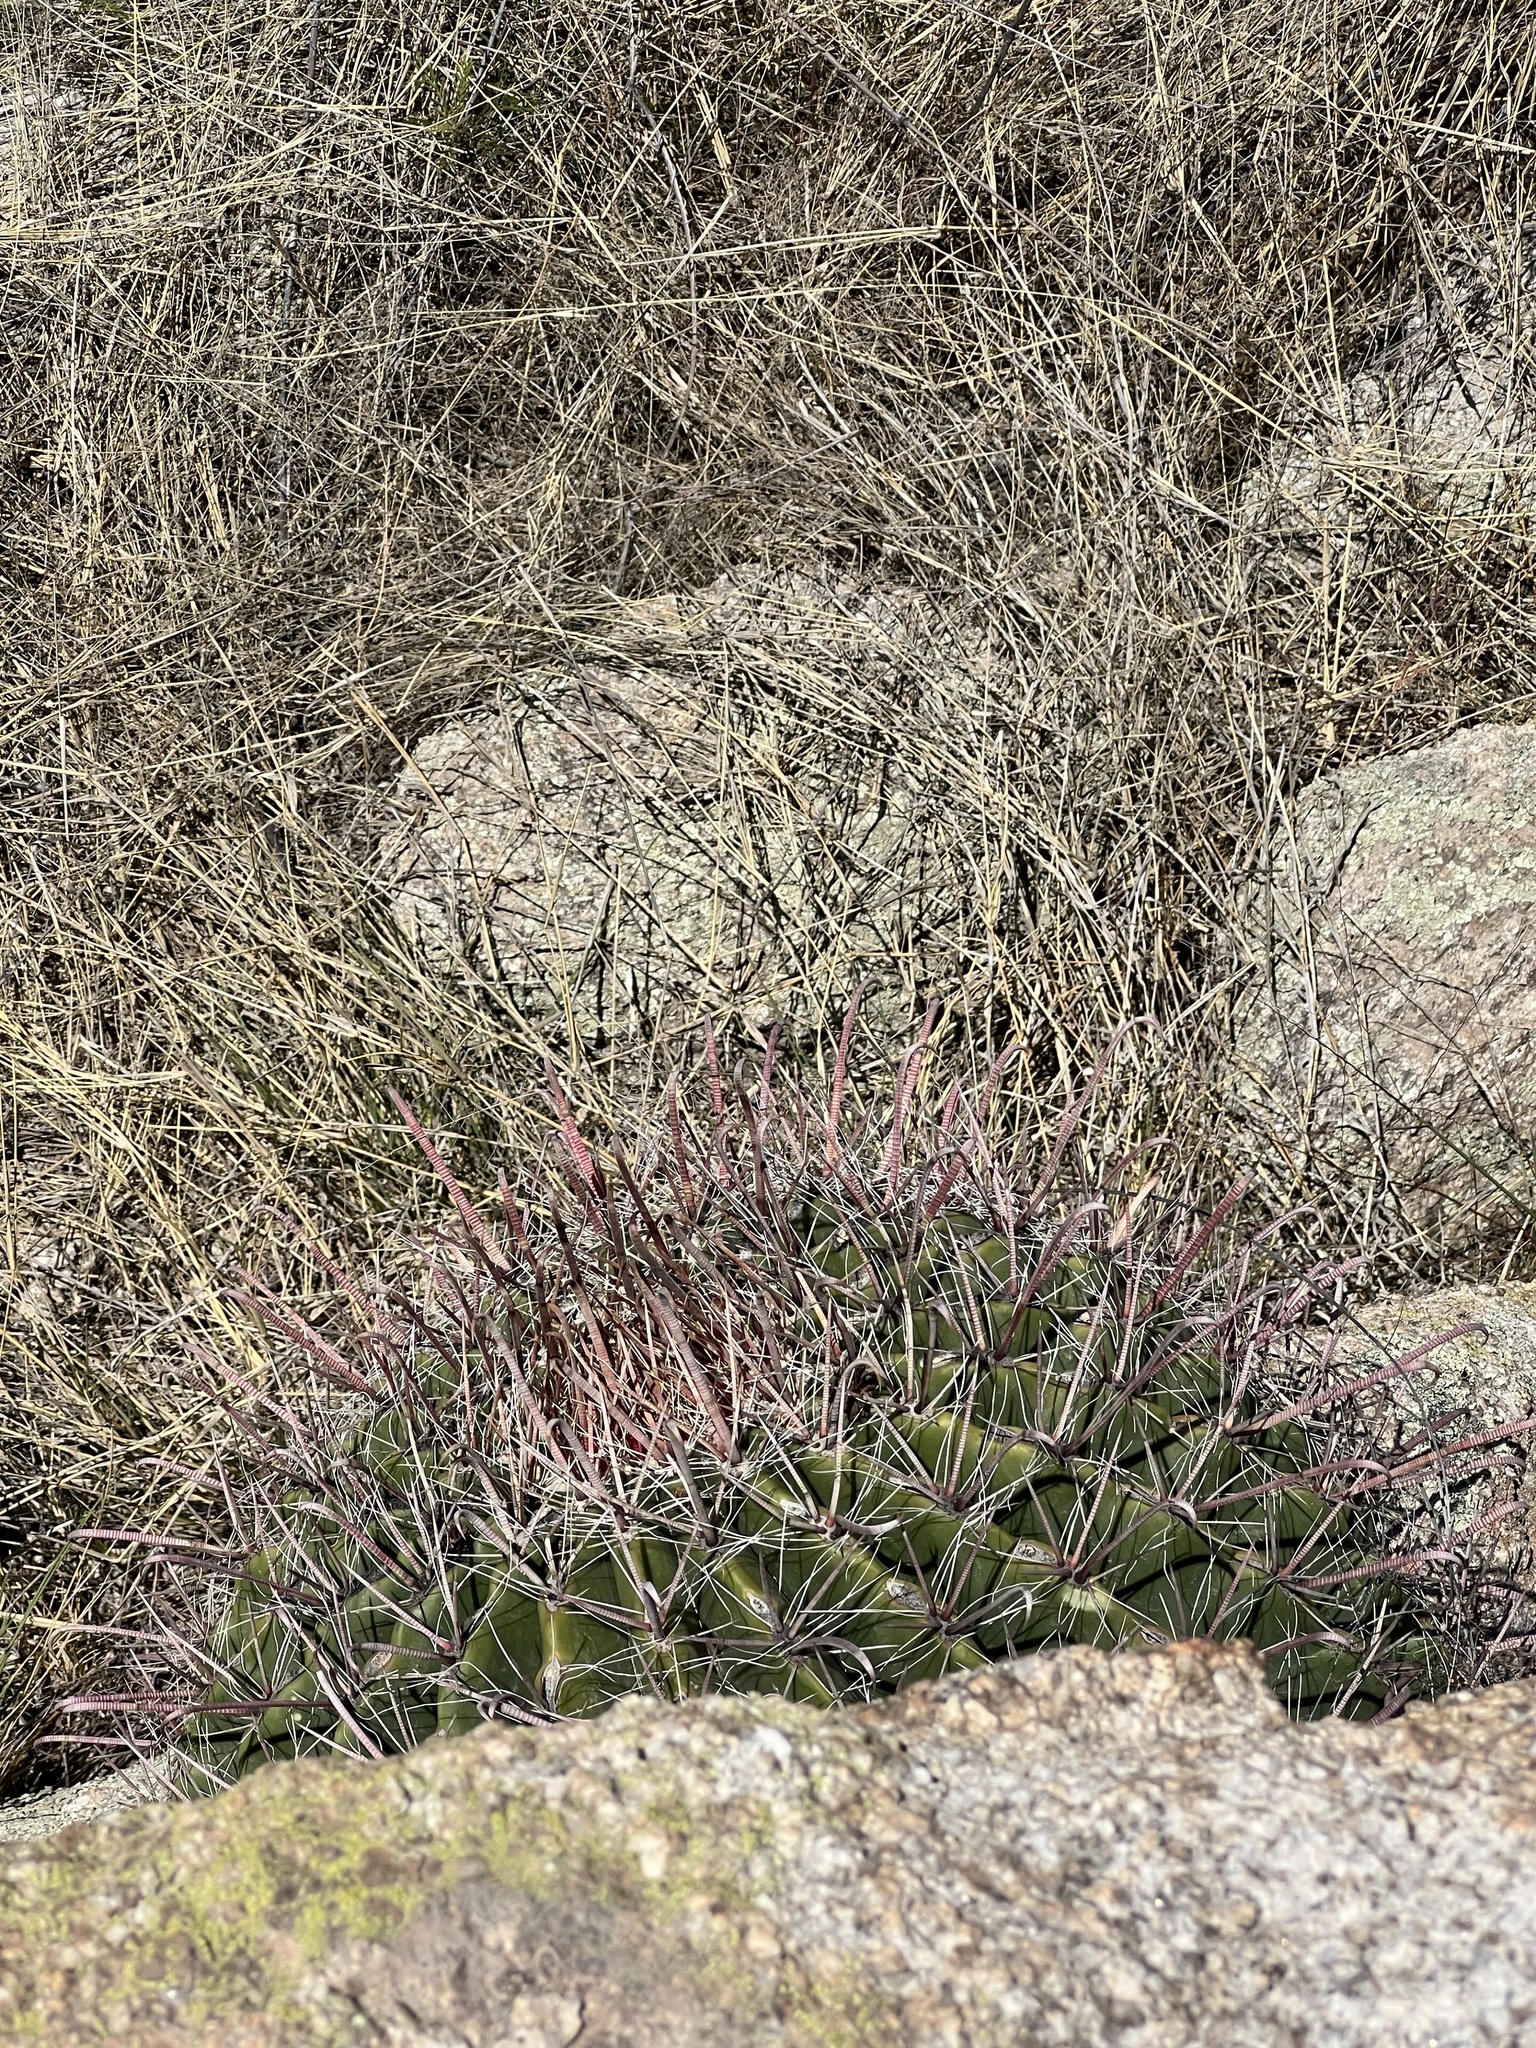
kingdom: Plantae
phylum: Tracheophyta
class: Magnoliopsida
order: Caryophyllales
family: Cactaceae
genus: Ferocactus
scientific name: Ferocactus wislizeni
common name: Candy barrel cactus
